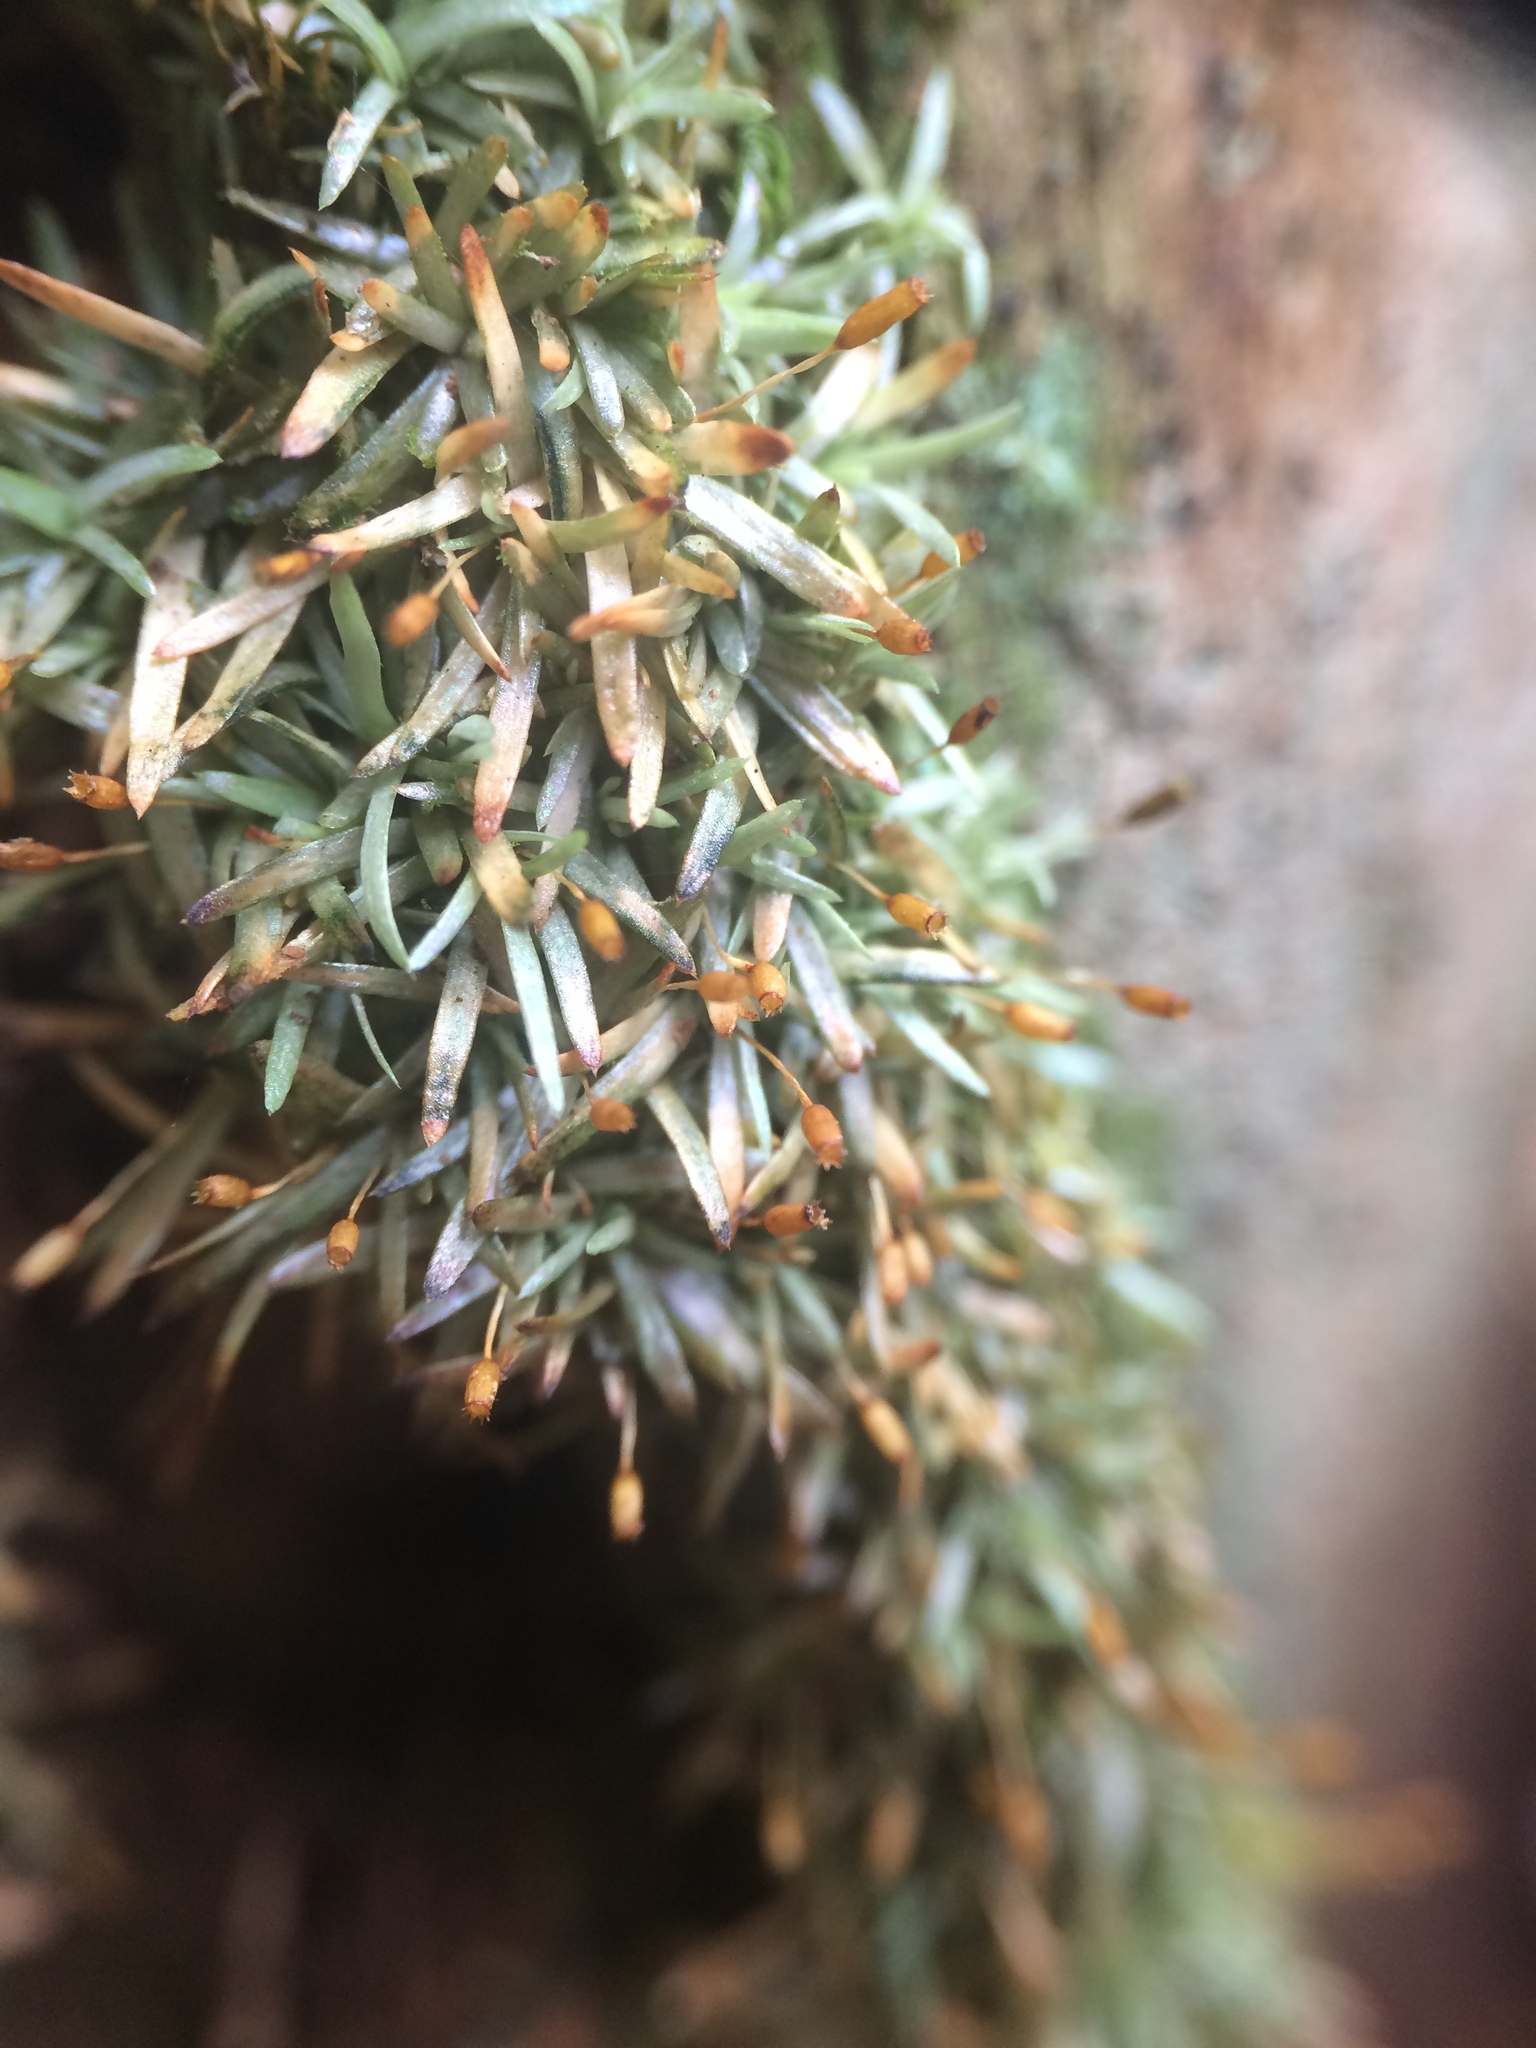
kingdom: Plantae
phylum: Bryophyta
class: Bryopsida
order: Dicranales
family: Octoblepharaceae
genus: Octoblepharum
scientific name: Octoblepharum albidum
